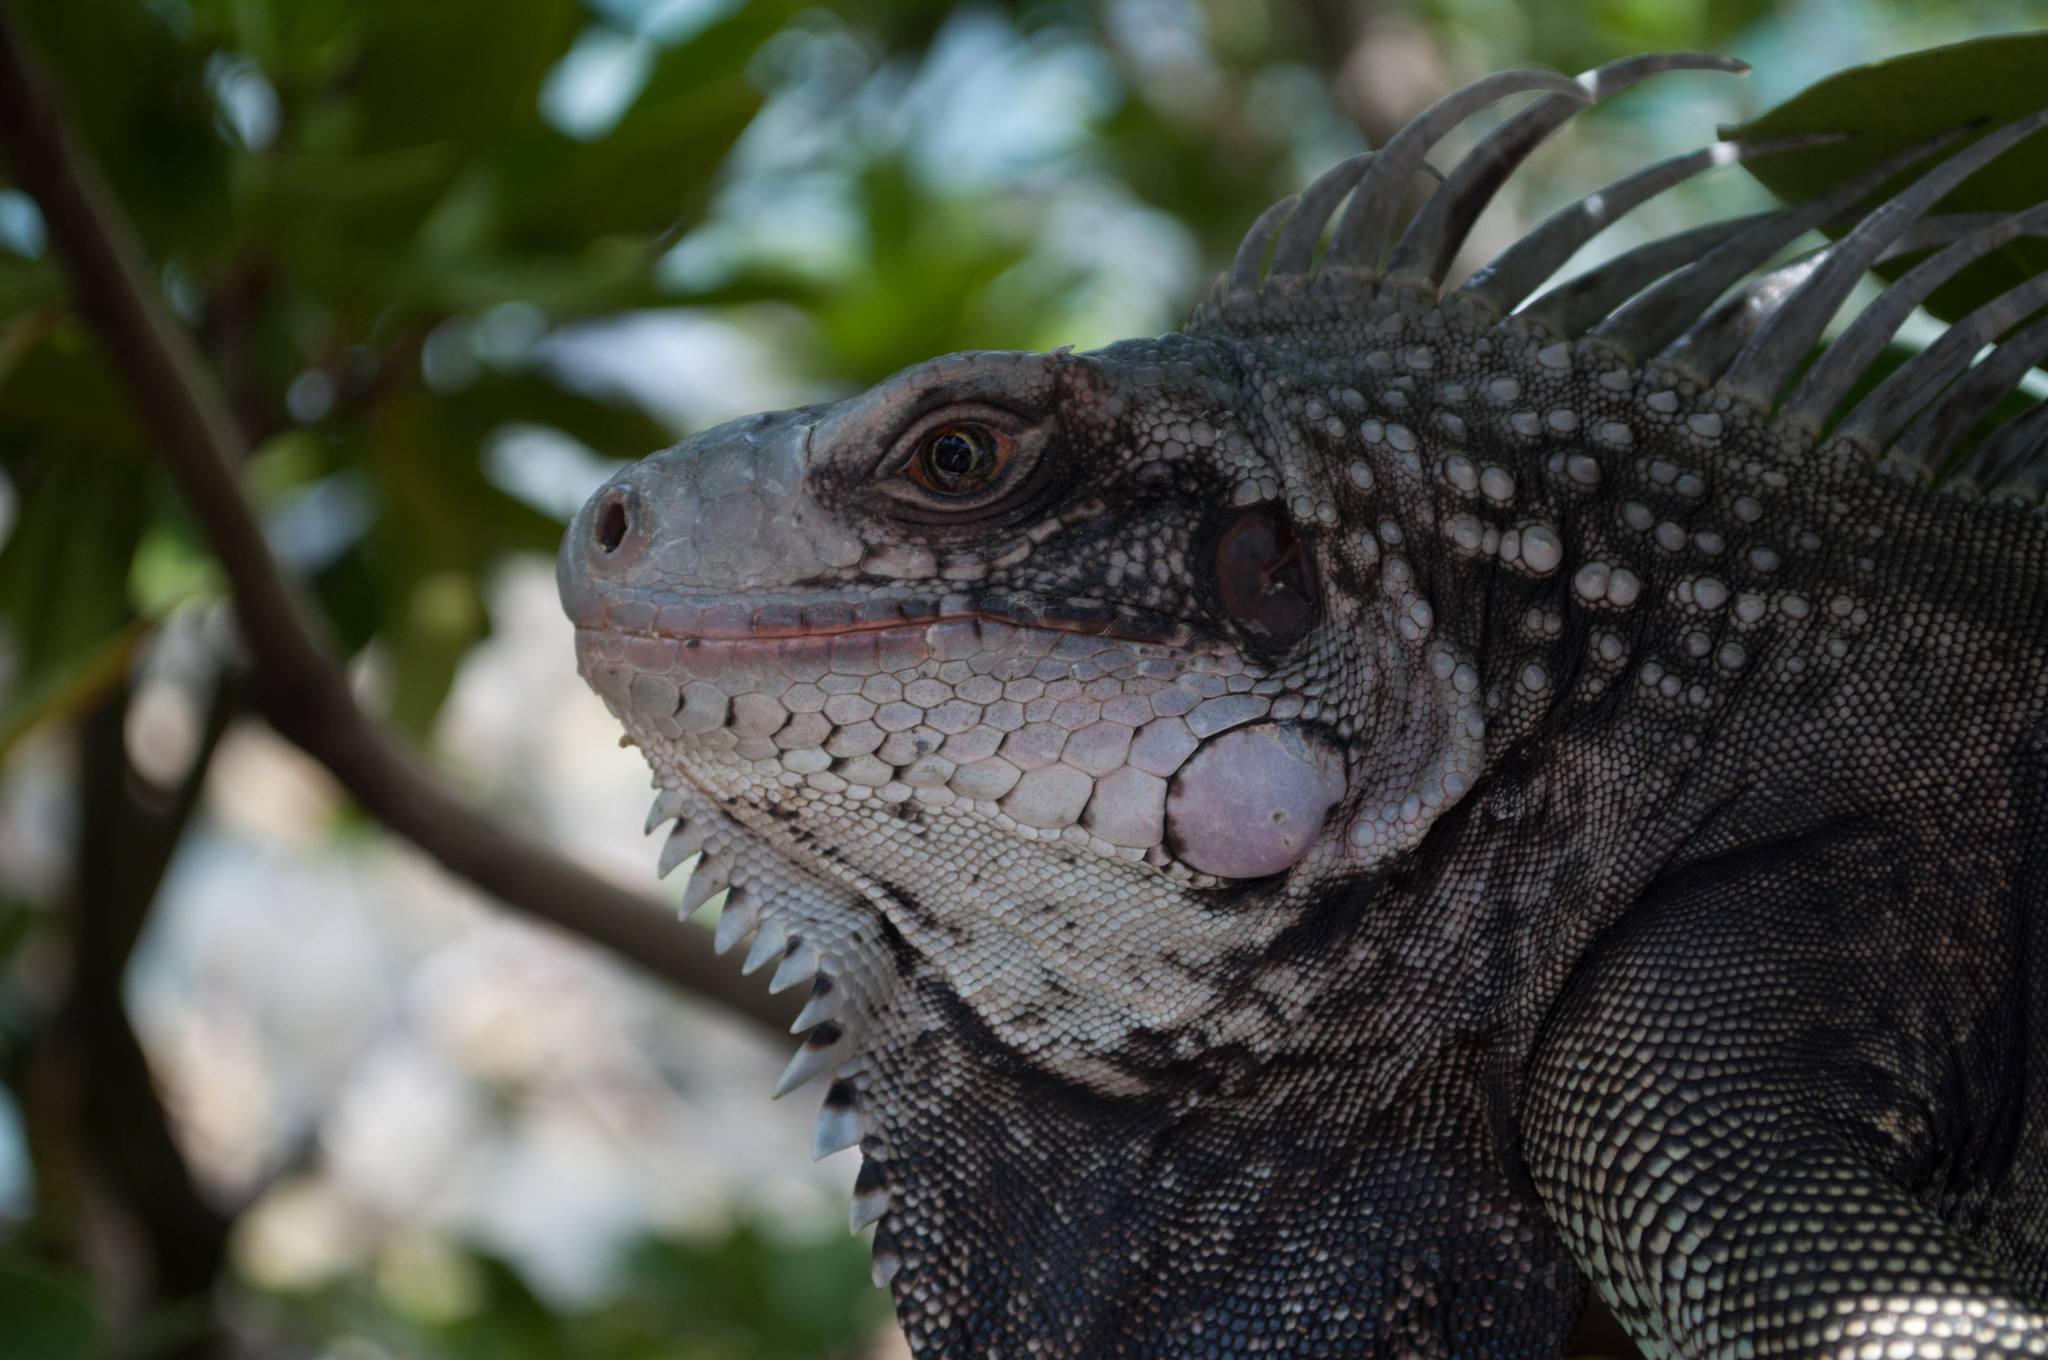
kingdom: Animalia
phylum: Chordata
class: Squamata
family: Iguanidae
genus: Iguana
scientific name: Iguana iguana
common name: Green iguana
